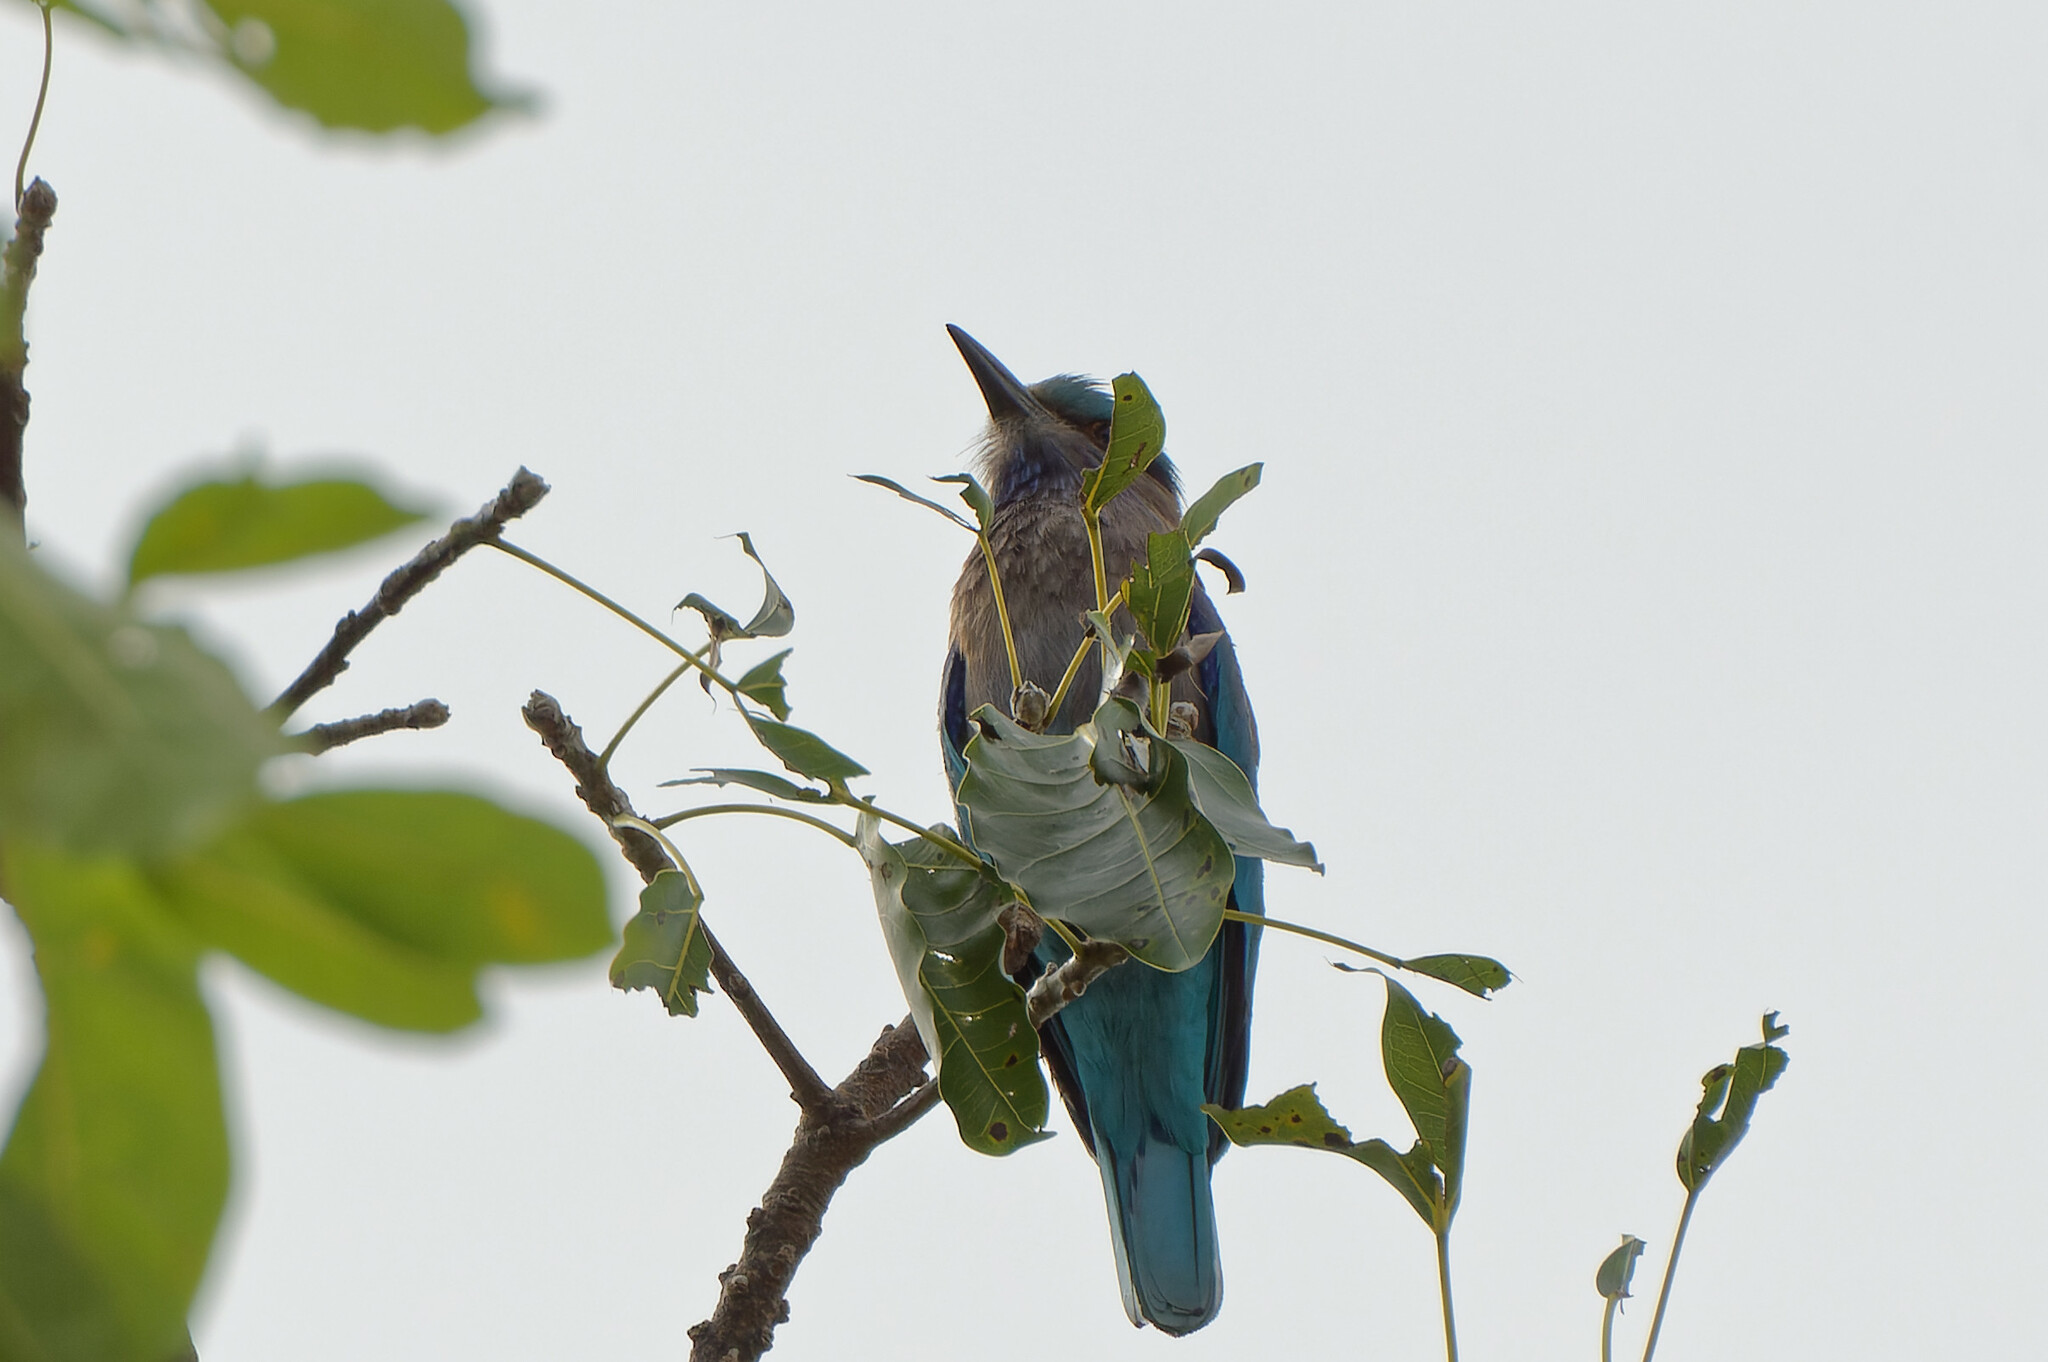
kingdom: Animalia
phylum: Chordata
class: Aves
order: Coraciiformes
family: Coraciidae
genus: Coracias
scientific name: Coracias affinis
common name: Indochinese roller
